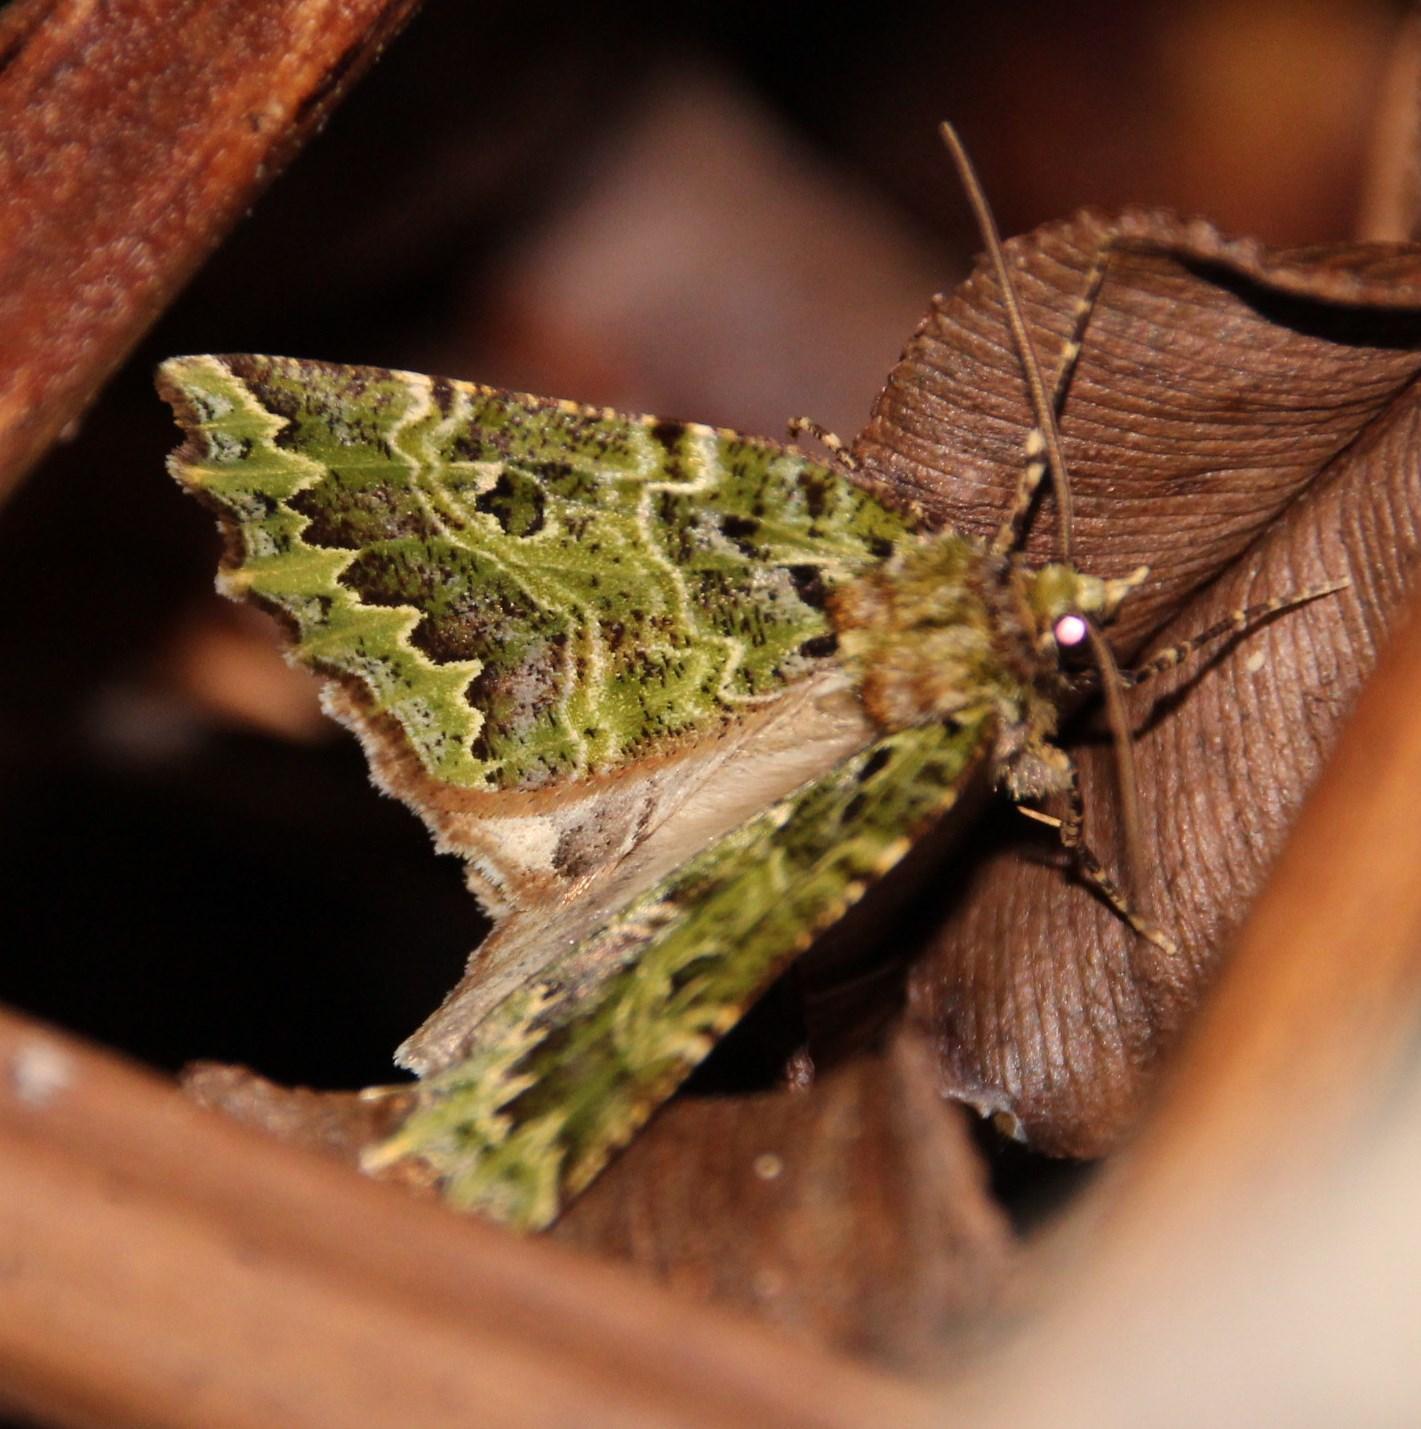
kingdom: Animalia
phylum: Arthropoda
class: Insecta
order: Lepidoptera
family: Geometridae
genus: Herochroma
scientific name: Herochroma Chloroclydon rinodaria
